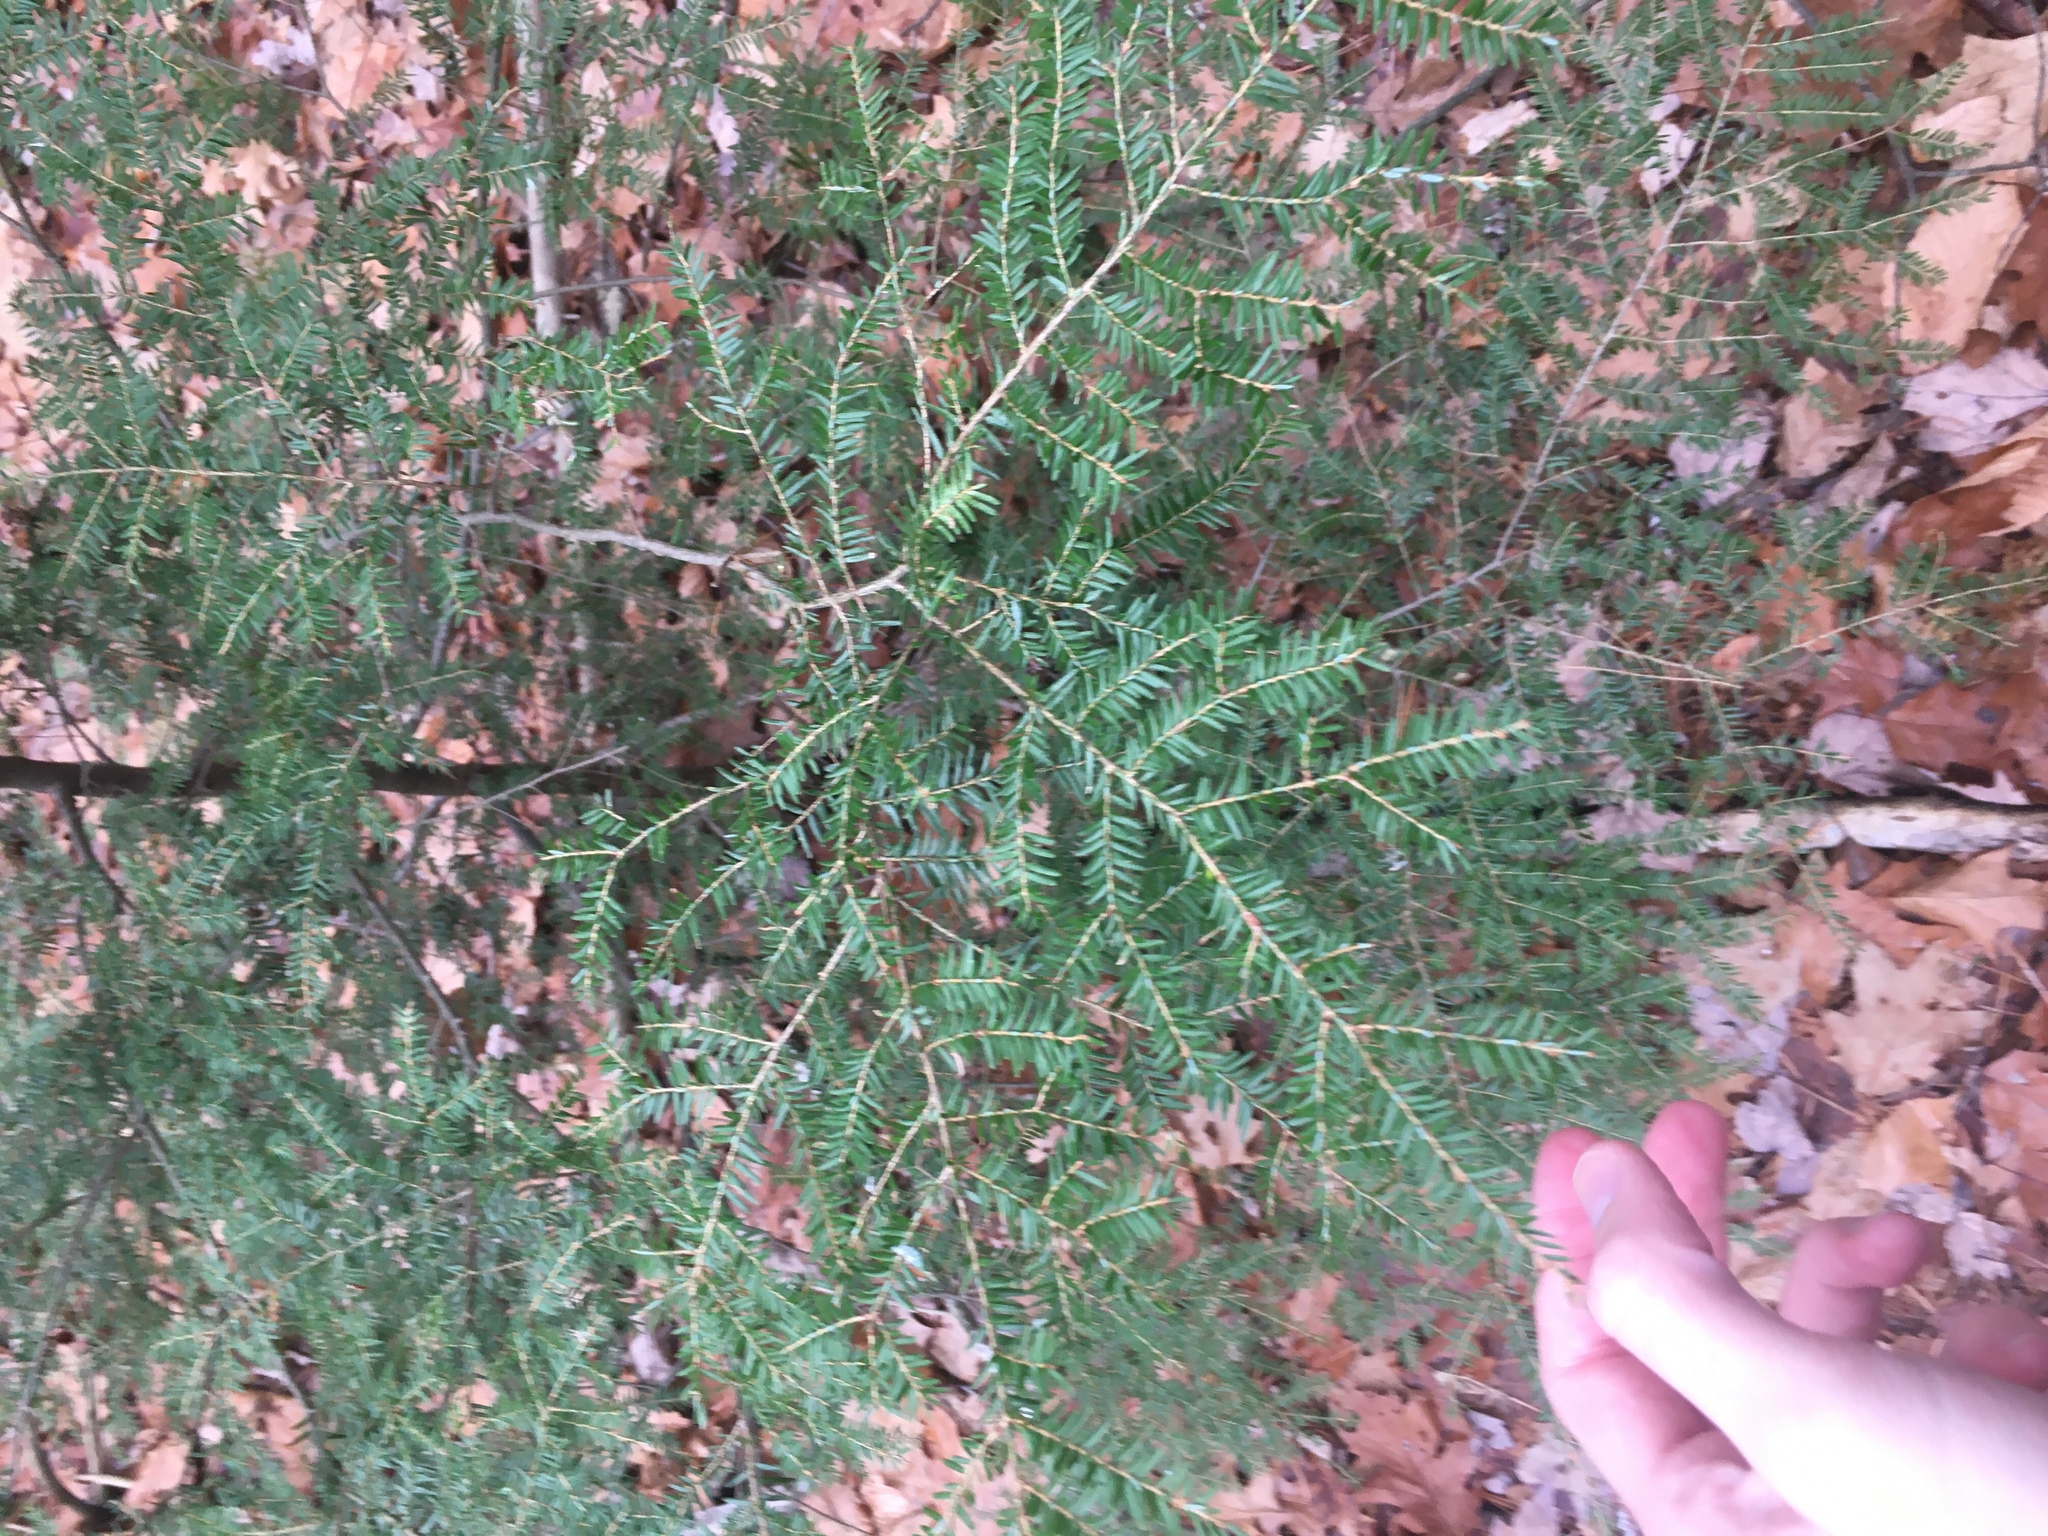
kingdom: Plantae
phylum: Tracheophyta
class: Pinopsida
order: Pinales
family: Pinaceae
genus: Tsuga
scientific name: Tsuga canadensis
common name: Eastern hemlock
